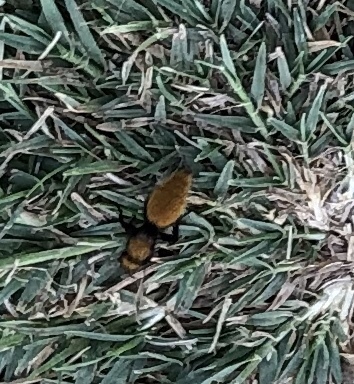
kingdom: Animalia
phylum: Arthropoda
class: Insecta
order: Hymenoptera
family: Mutillidae
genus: Dasymutilla
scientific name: Dasymutilla
